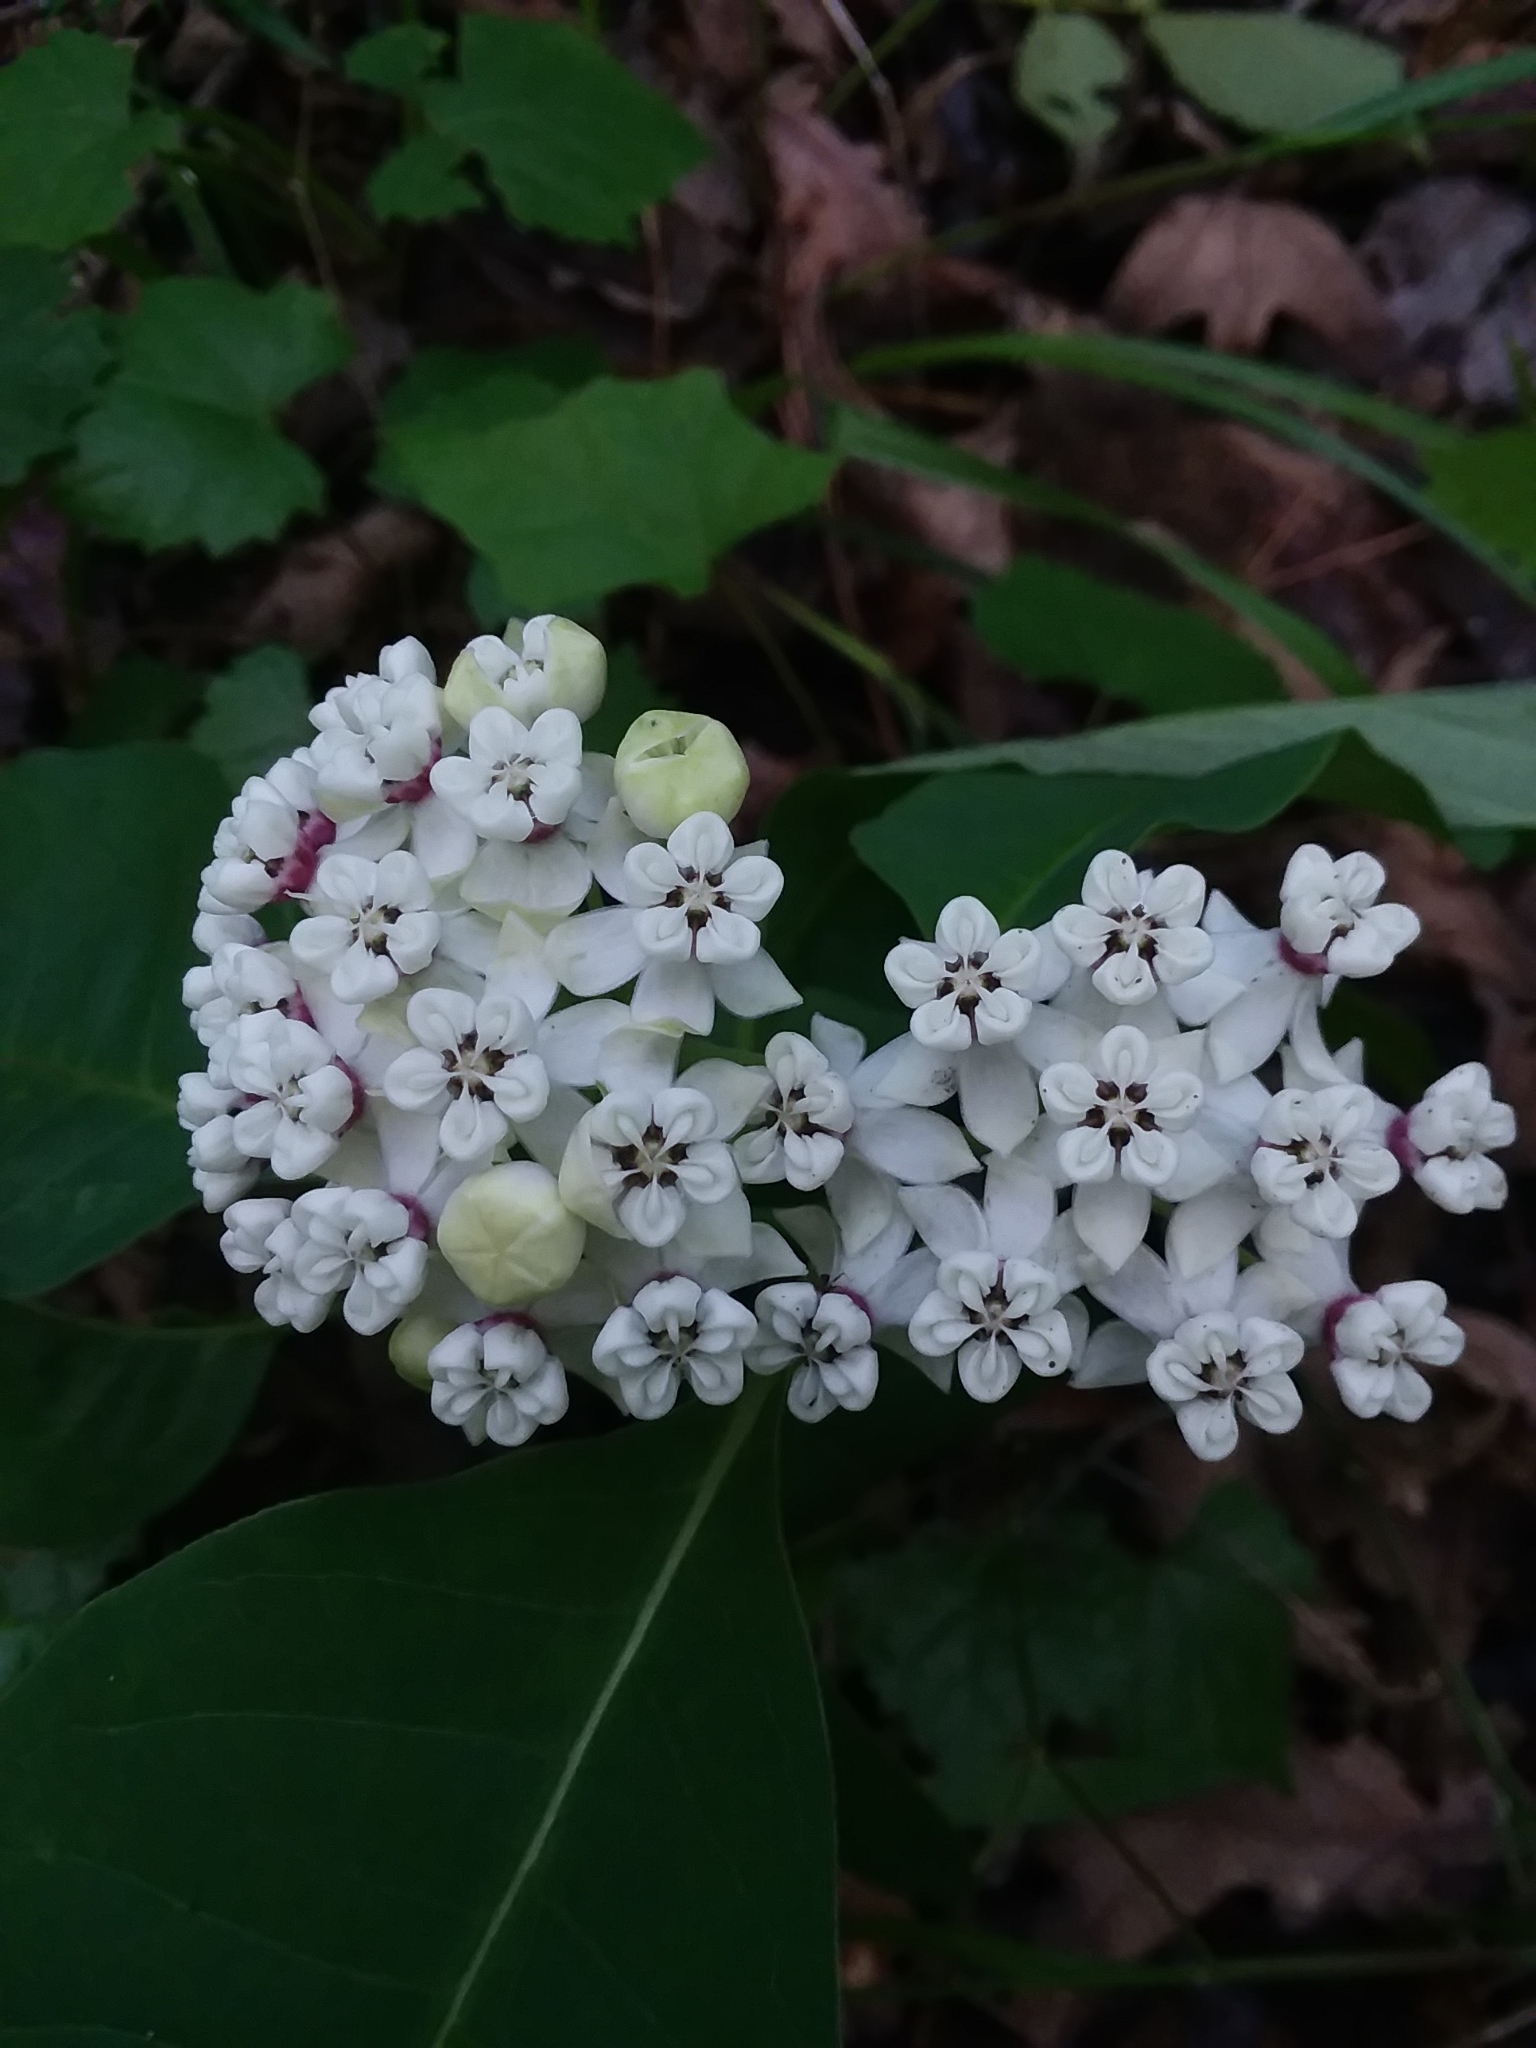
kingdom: Plantae
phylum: Tracheophyta
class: Magnoliopsida
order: Gentianales
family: Apocynaceae
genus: Asclepias
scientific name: Asclepias variegata
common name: Variegated milkweed
